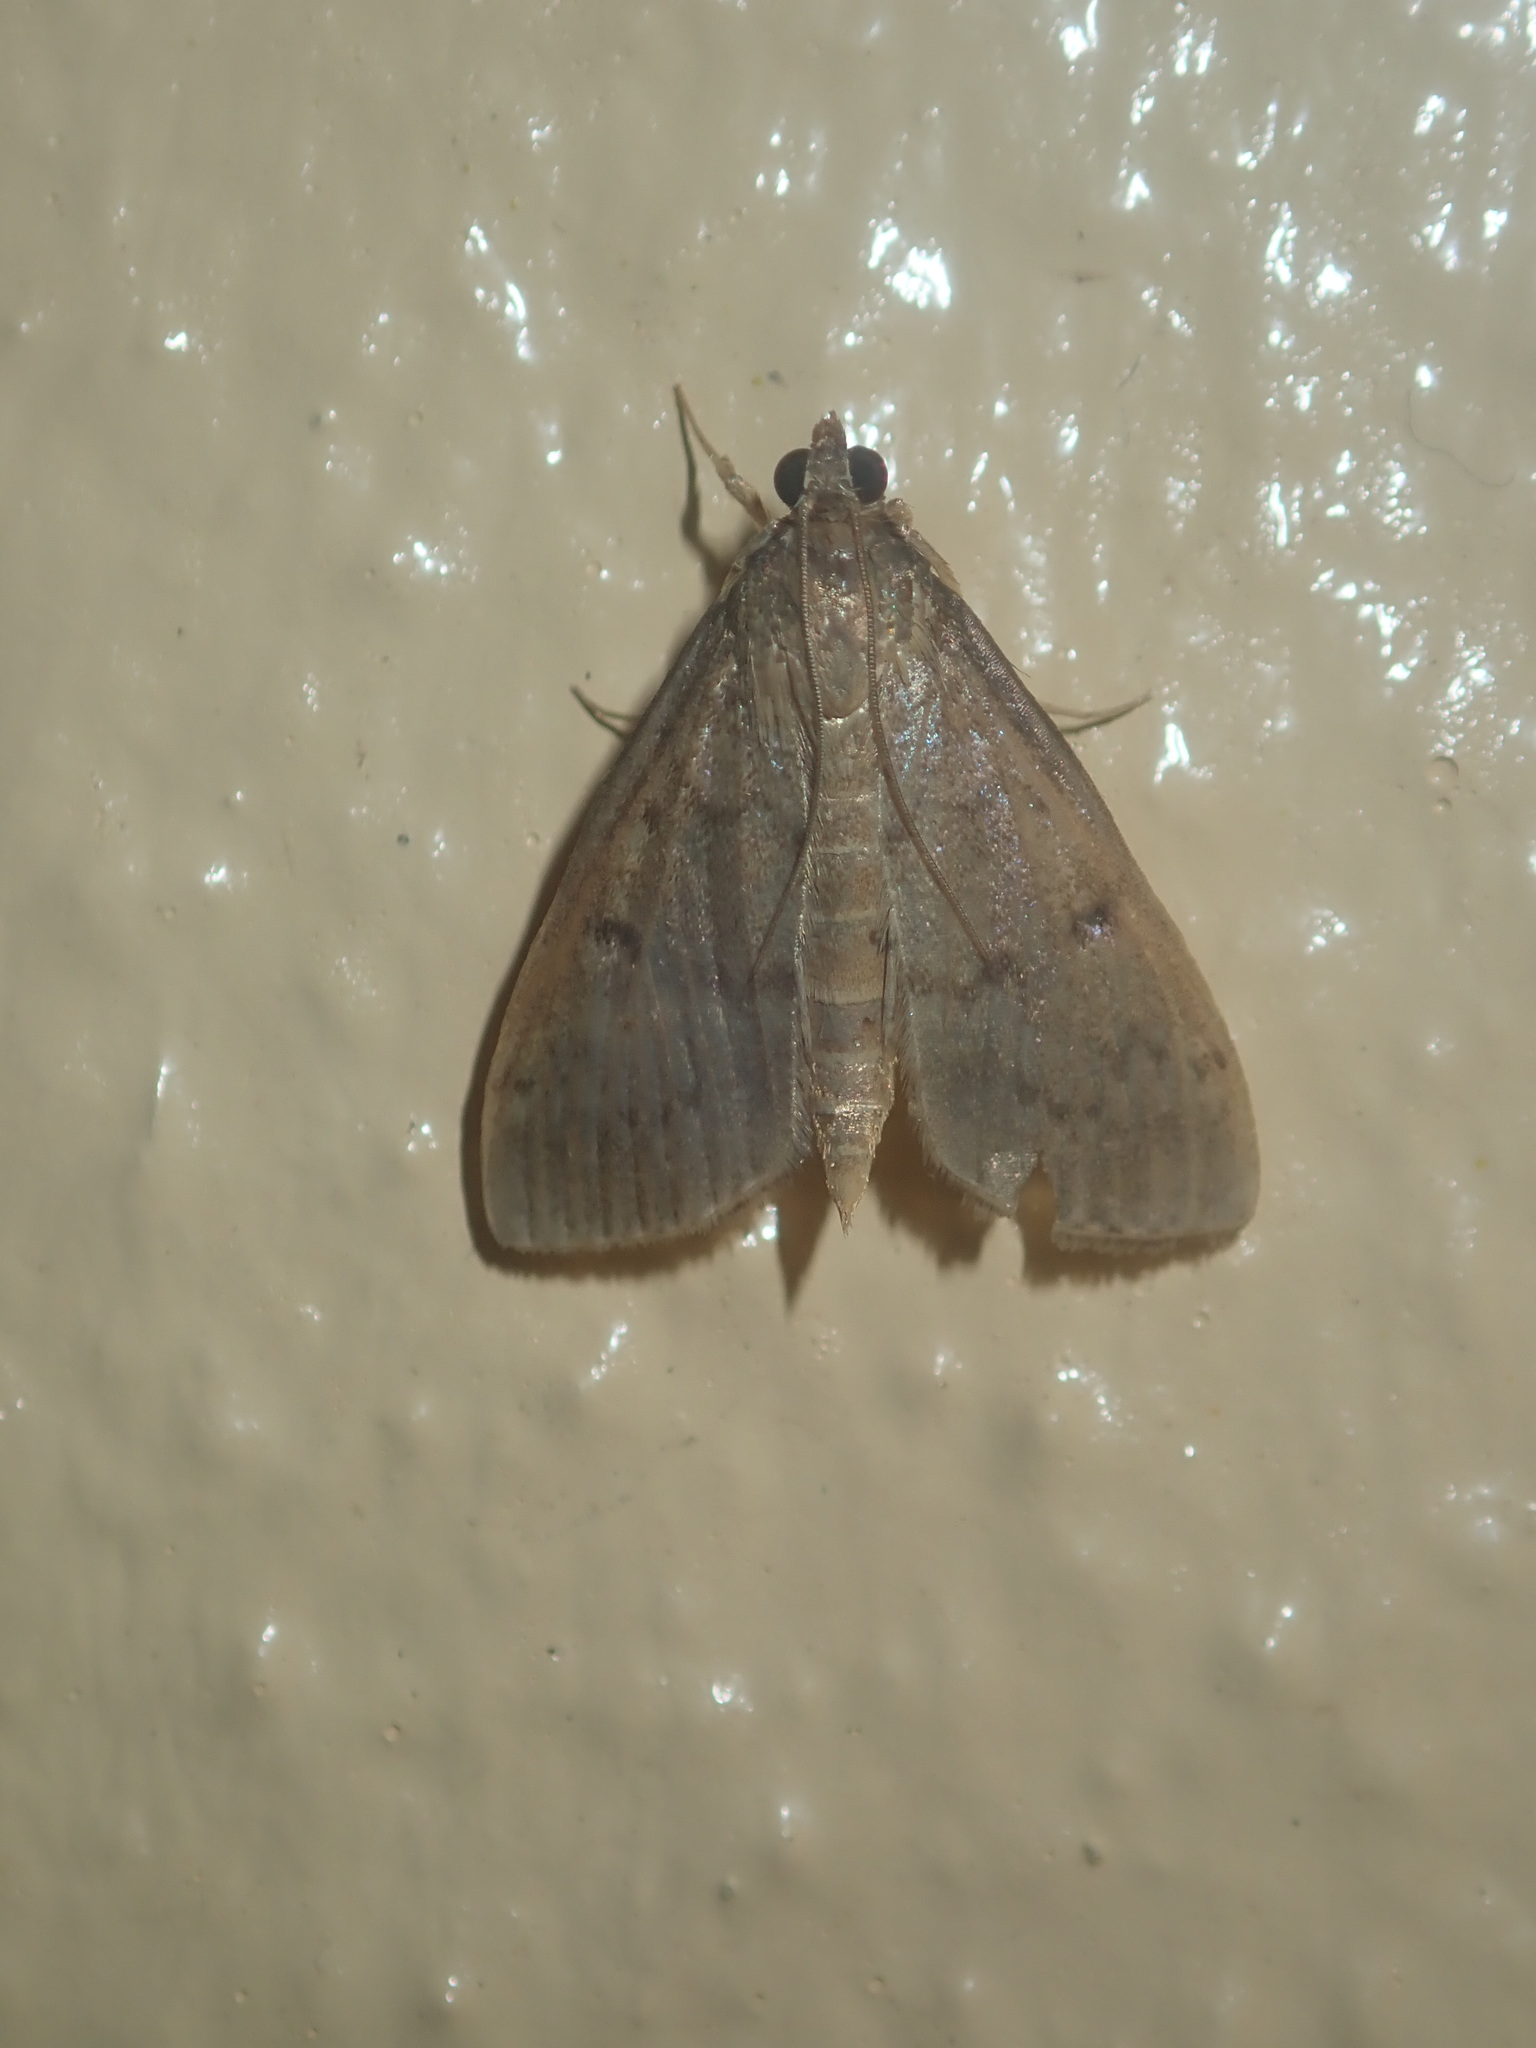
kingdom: Animalia
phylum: Arthropoda
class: Insecta
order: Lepidoptera
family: Crambidae
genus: Herpetogramma
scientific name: Herpetogramma licarsisalis
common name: Grass webworm
